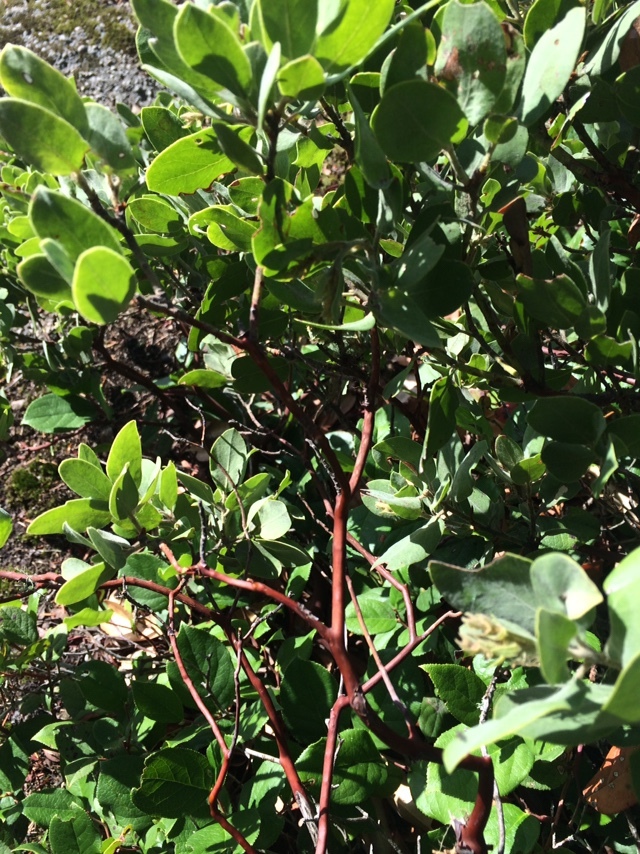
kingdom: Plantae
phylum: Tracheophyta
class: Magnoliopsida
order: Ericales
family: Ericaceae
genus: Arctostaphylos
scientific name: Arctostaphylos columbiana
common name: Bristly bearberry
